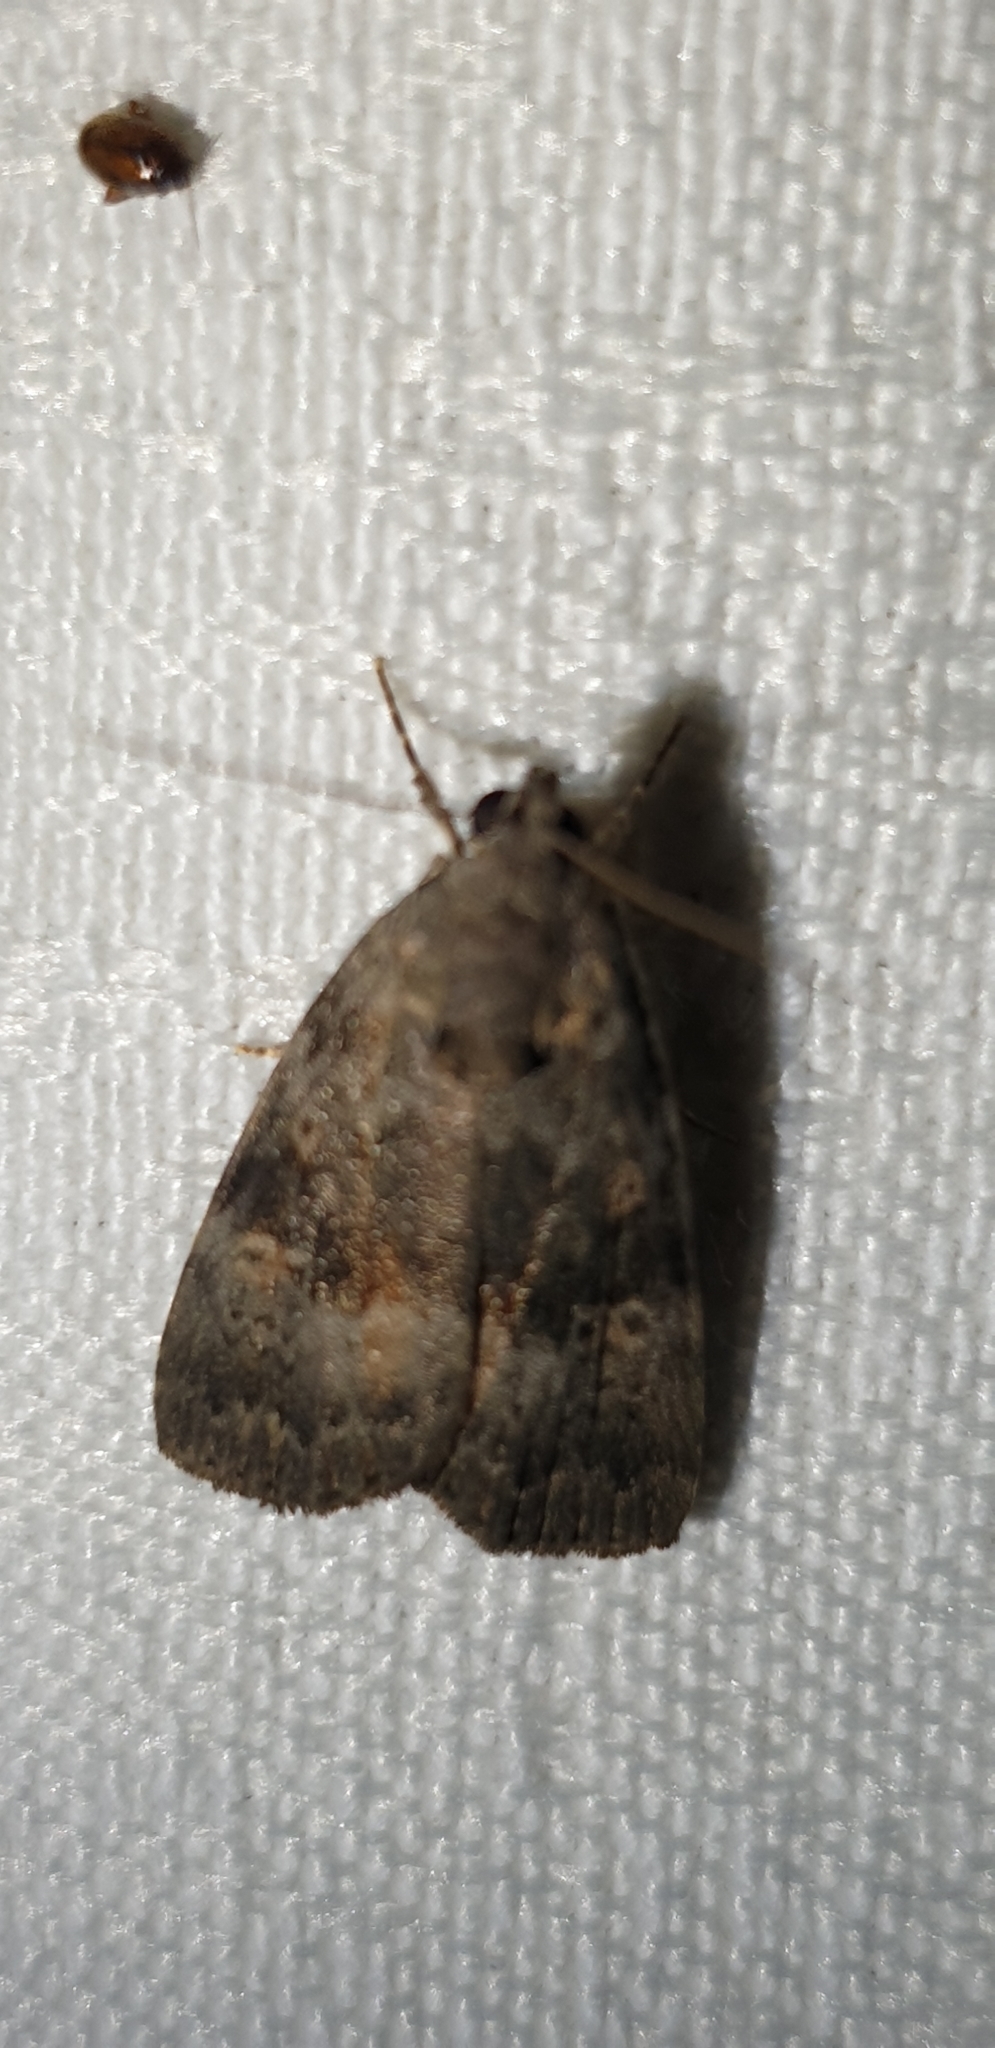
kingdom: Animalia
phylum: Arthropoda
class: Insecta
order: Lepidoptera
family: Noctuidae
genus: Aucha
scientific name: Aucha triphaenoides
